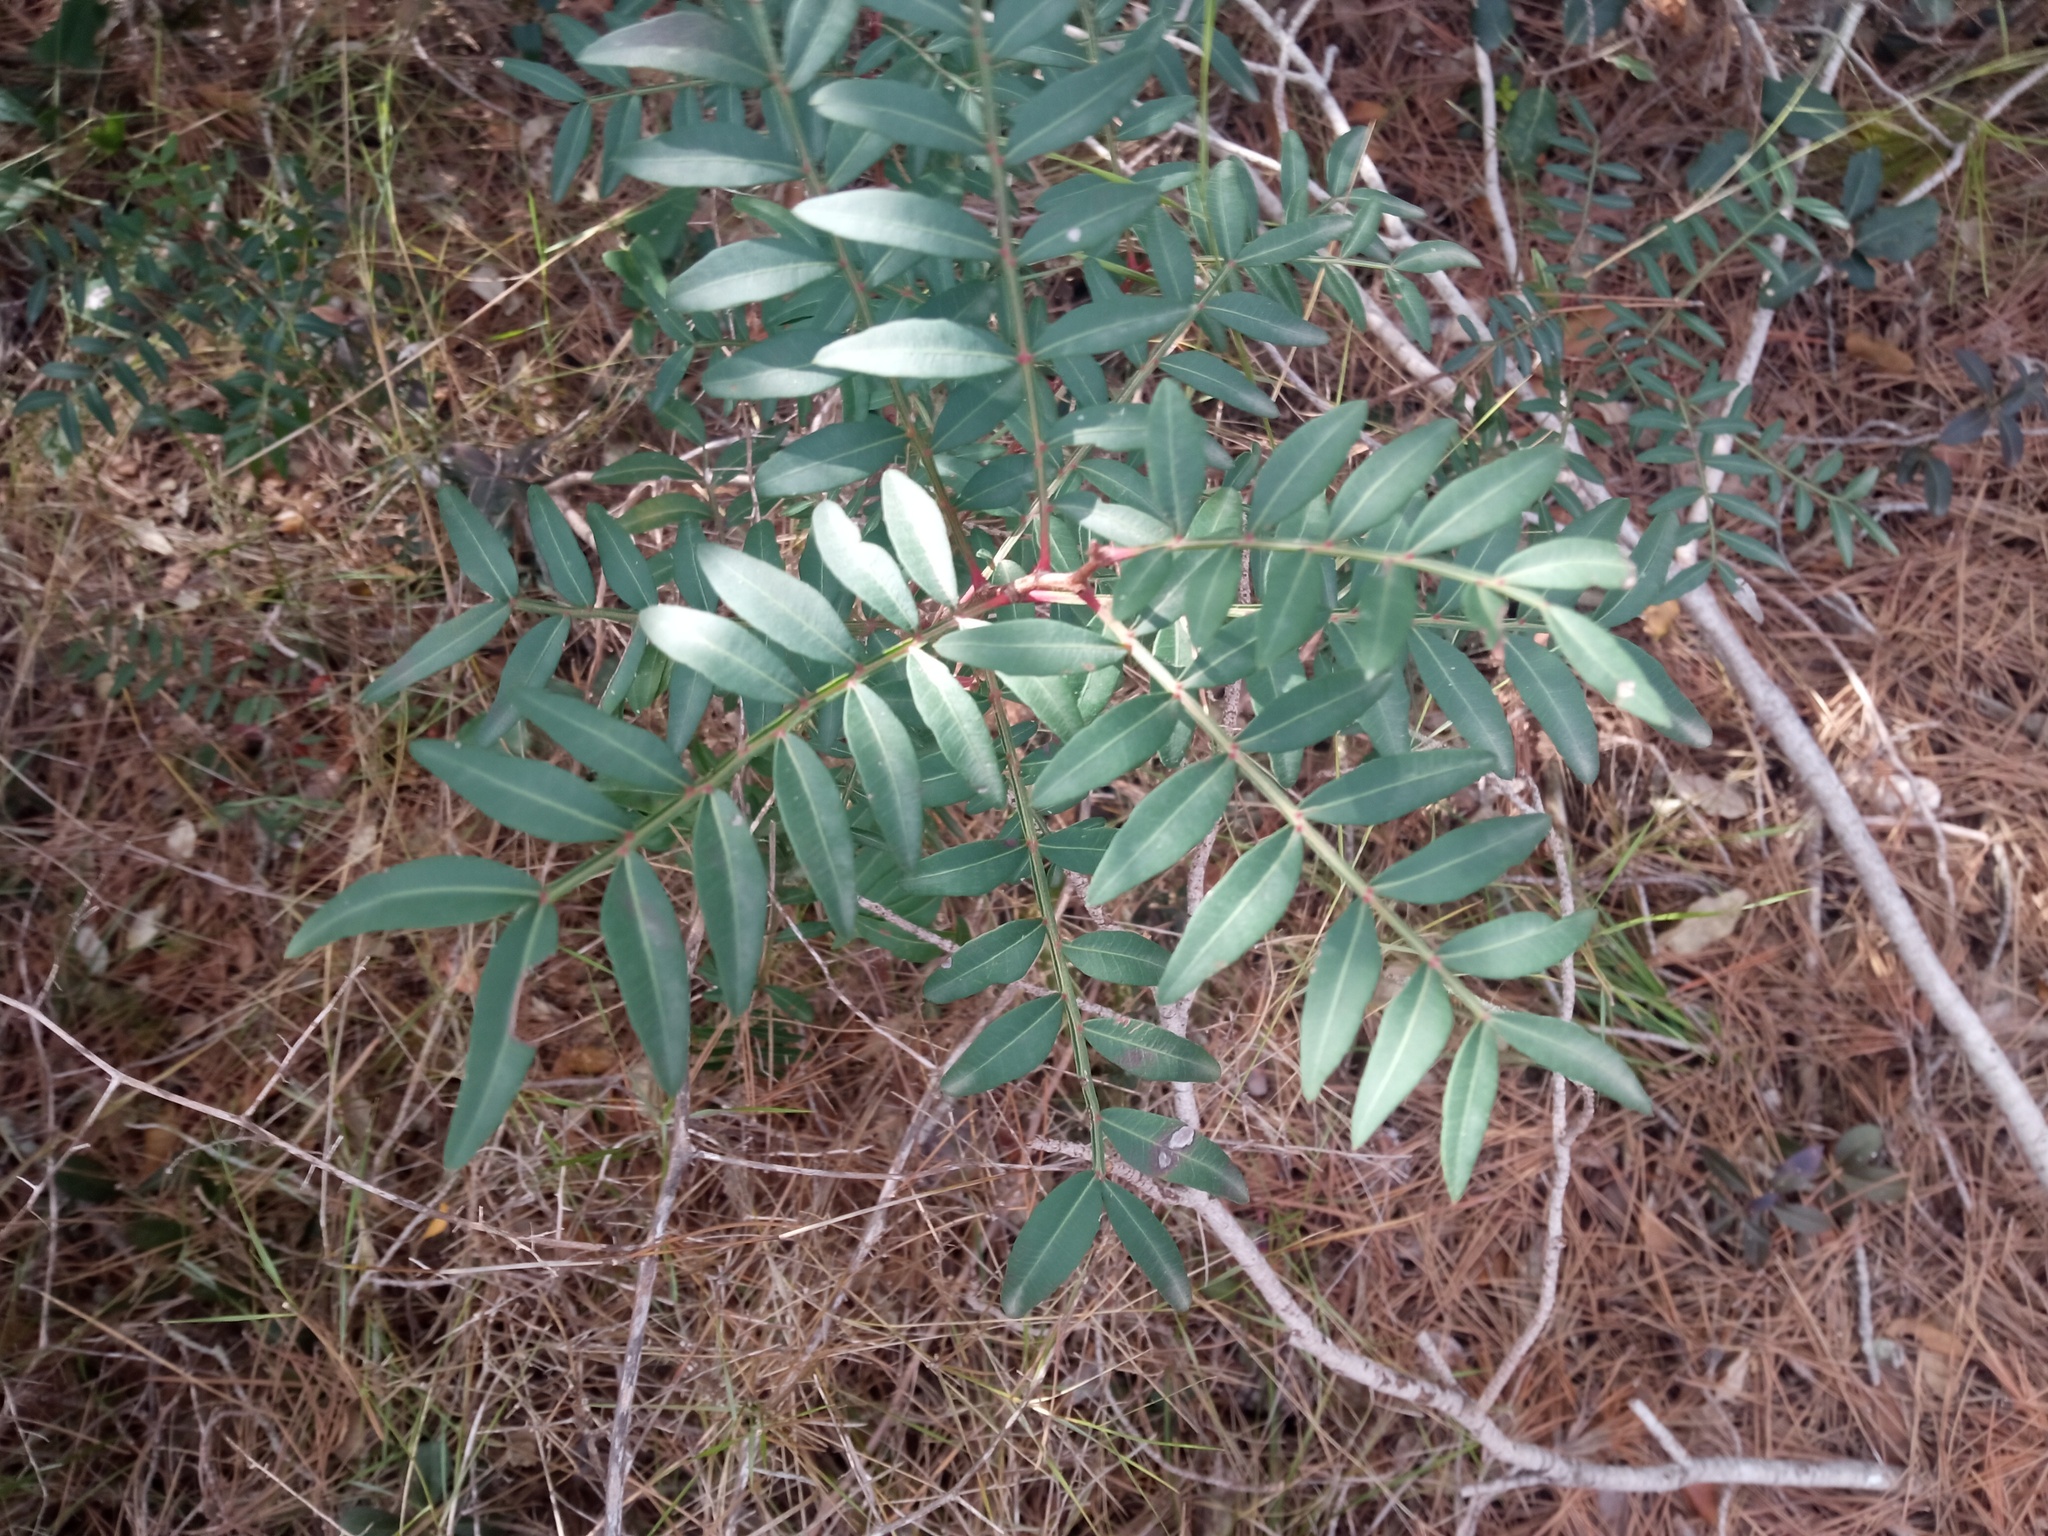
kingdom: Plantae
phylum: Tracheophyta
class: Magnoliopsida
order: Sapindales
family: Anacardiaceae
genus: Pistacia
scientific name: Pistacia lentiscus
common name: Lentisk
